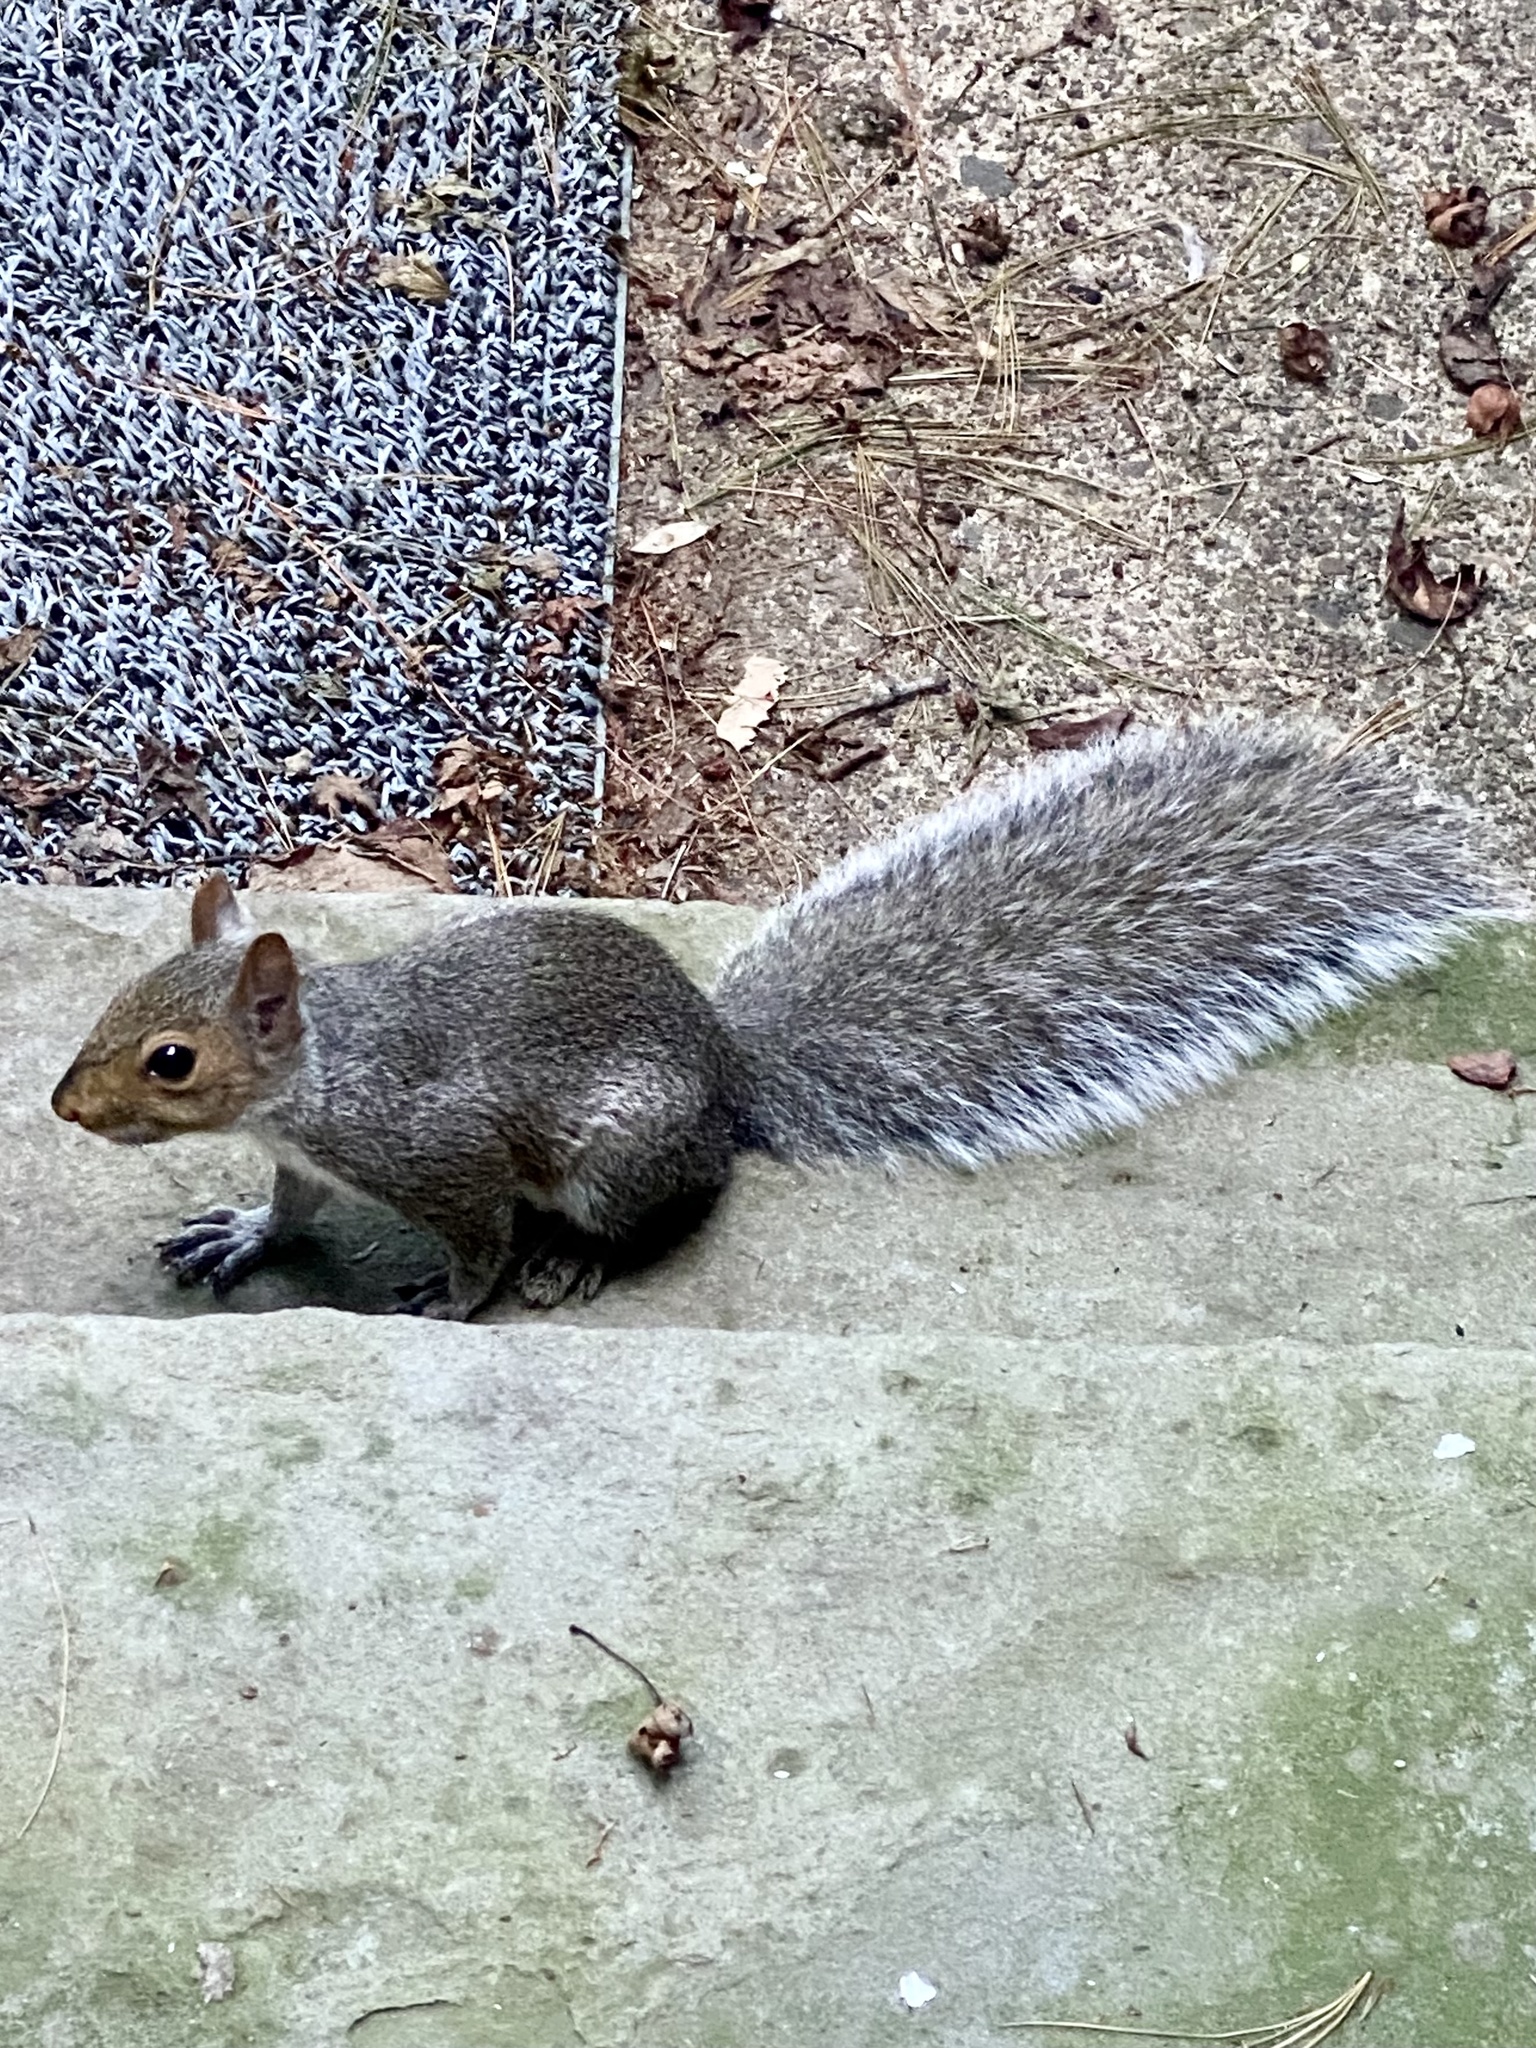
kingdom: Animalia
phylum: Chordata
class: Mammalia
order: Rodentia
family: Sciuridae
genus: Sciurus
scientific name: Sciurus carolinensis
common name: Eastern gray squirrel
